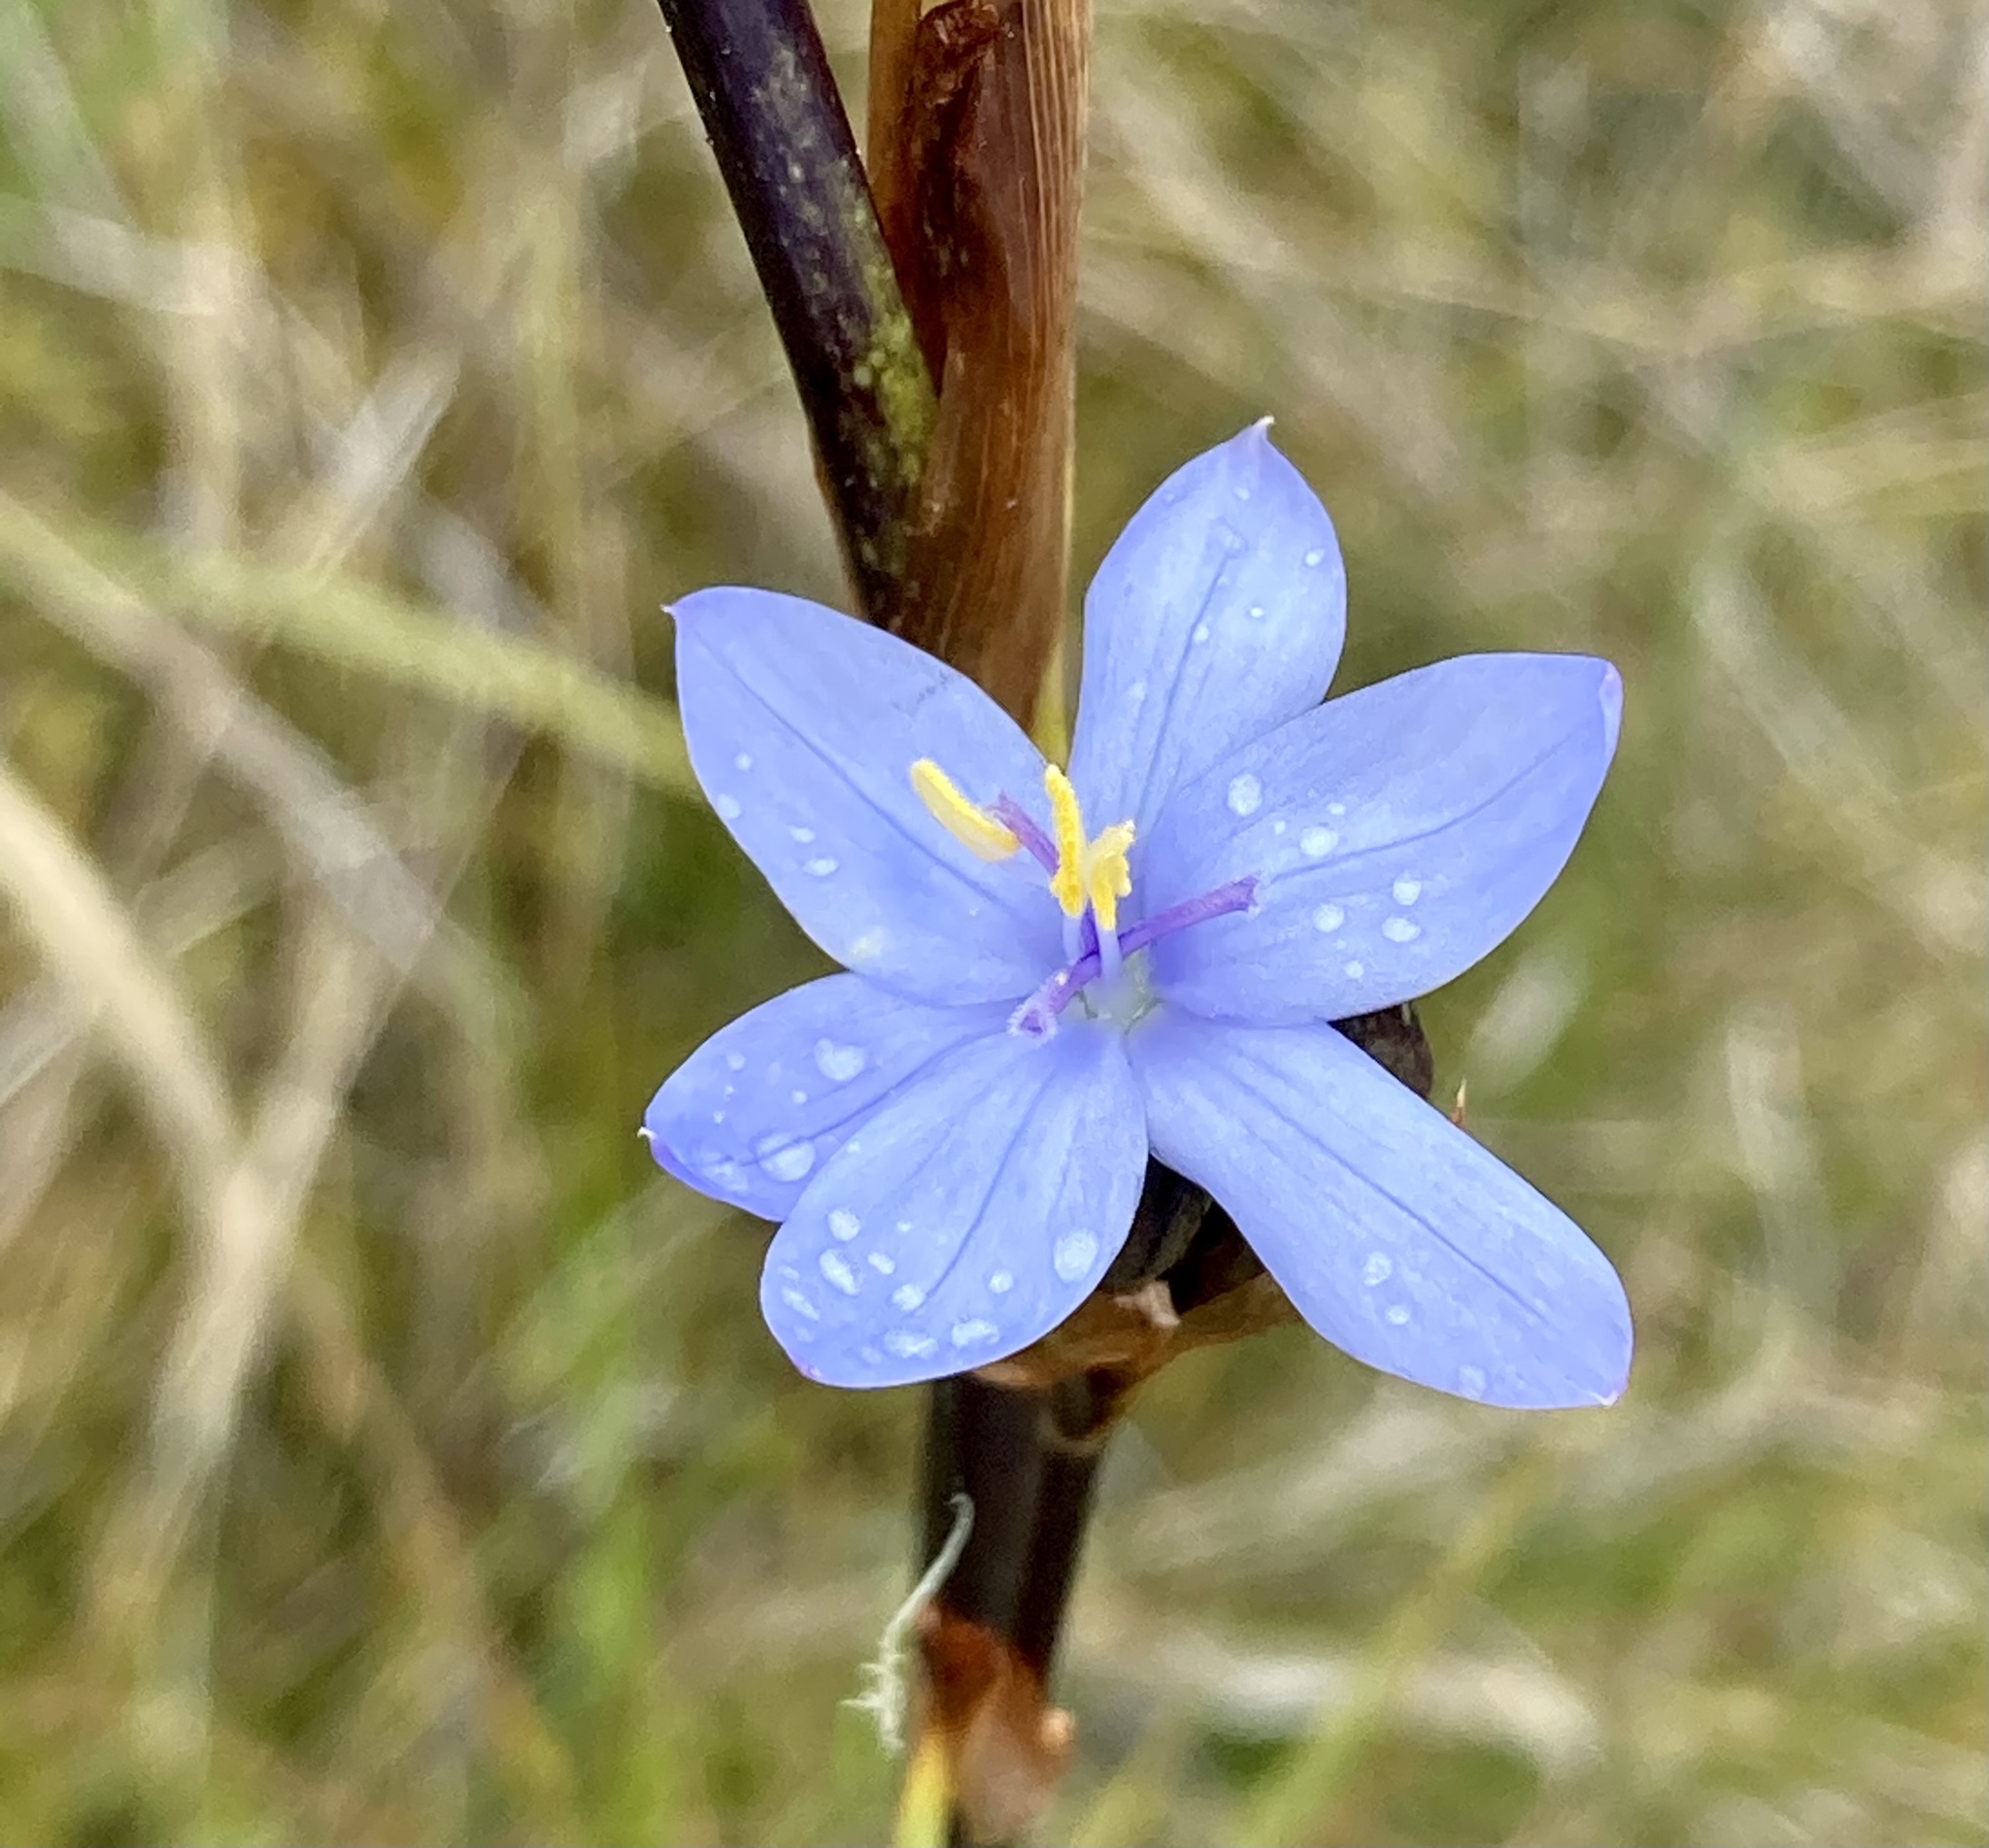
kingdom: Plantae
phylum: Tracheophyta
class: Liliopsida
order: Asparagales
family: Iridaceae
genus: Orthrosanthus
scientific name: Orthrosanthus chimboracensis
